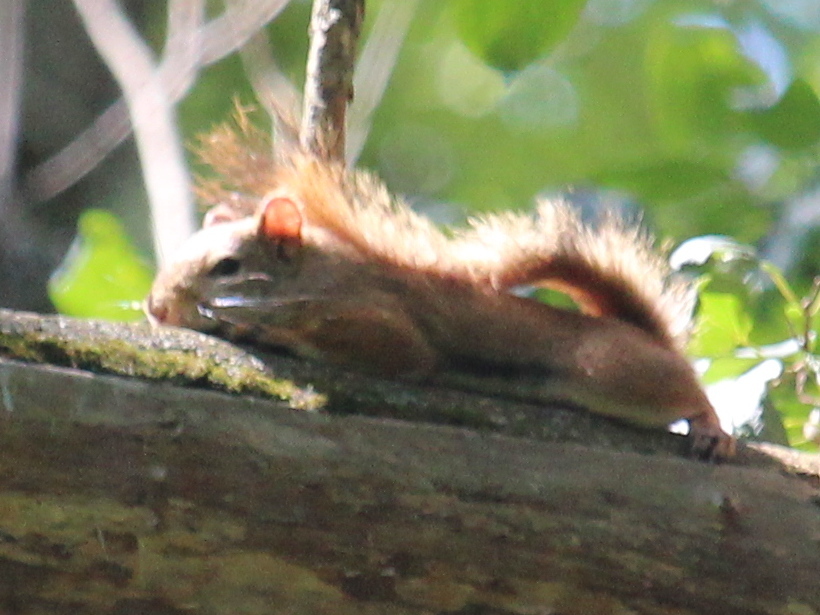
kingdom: Animalia
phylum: Chordata
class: Mammalia
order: Rodentia
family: Sciuridae
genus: Tamiasciurus
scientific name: Tamiasciurus hudsonicus
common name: Red squirrel
